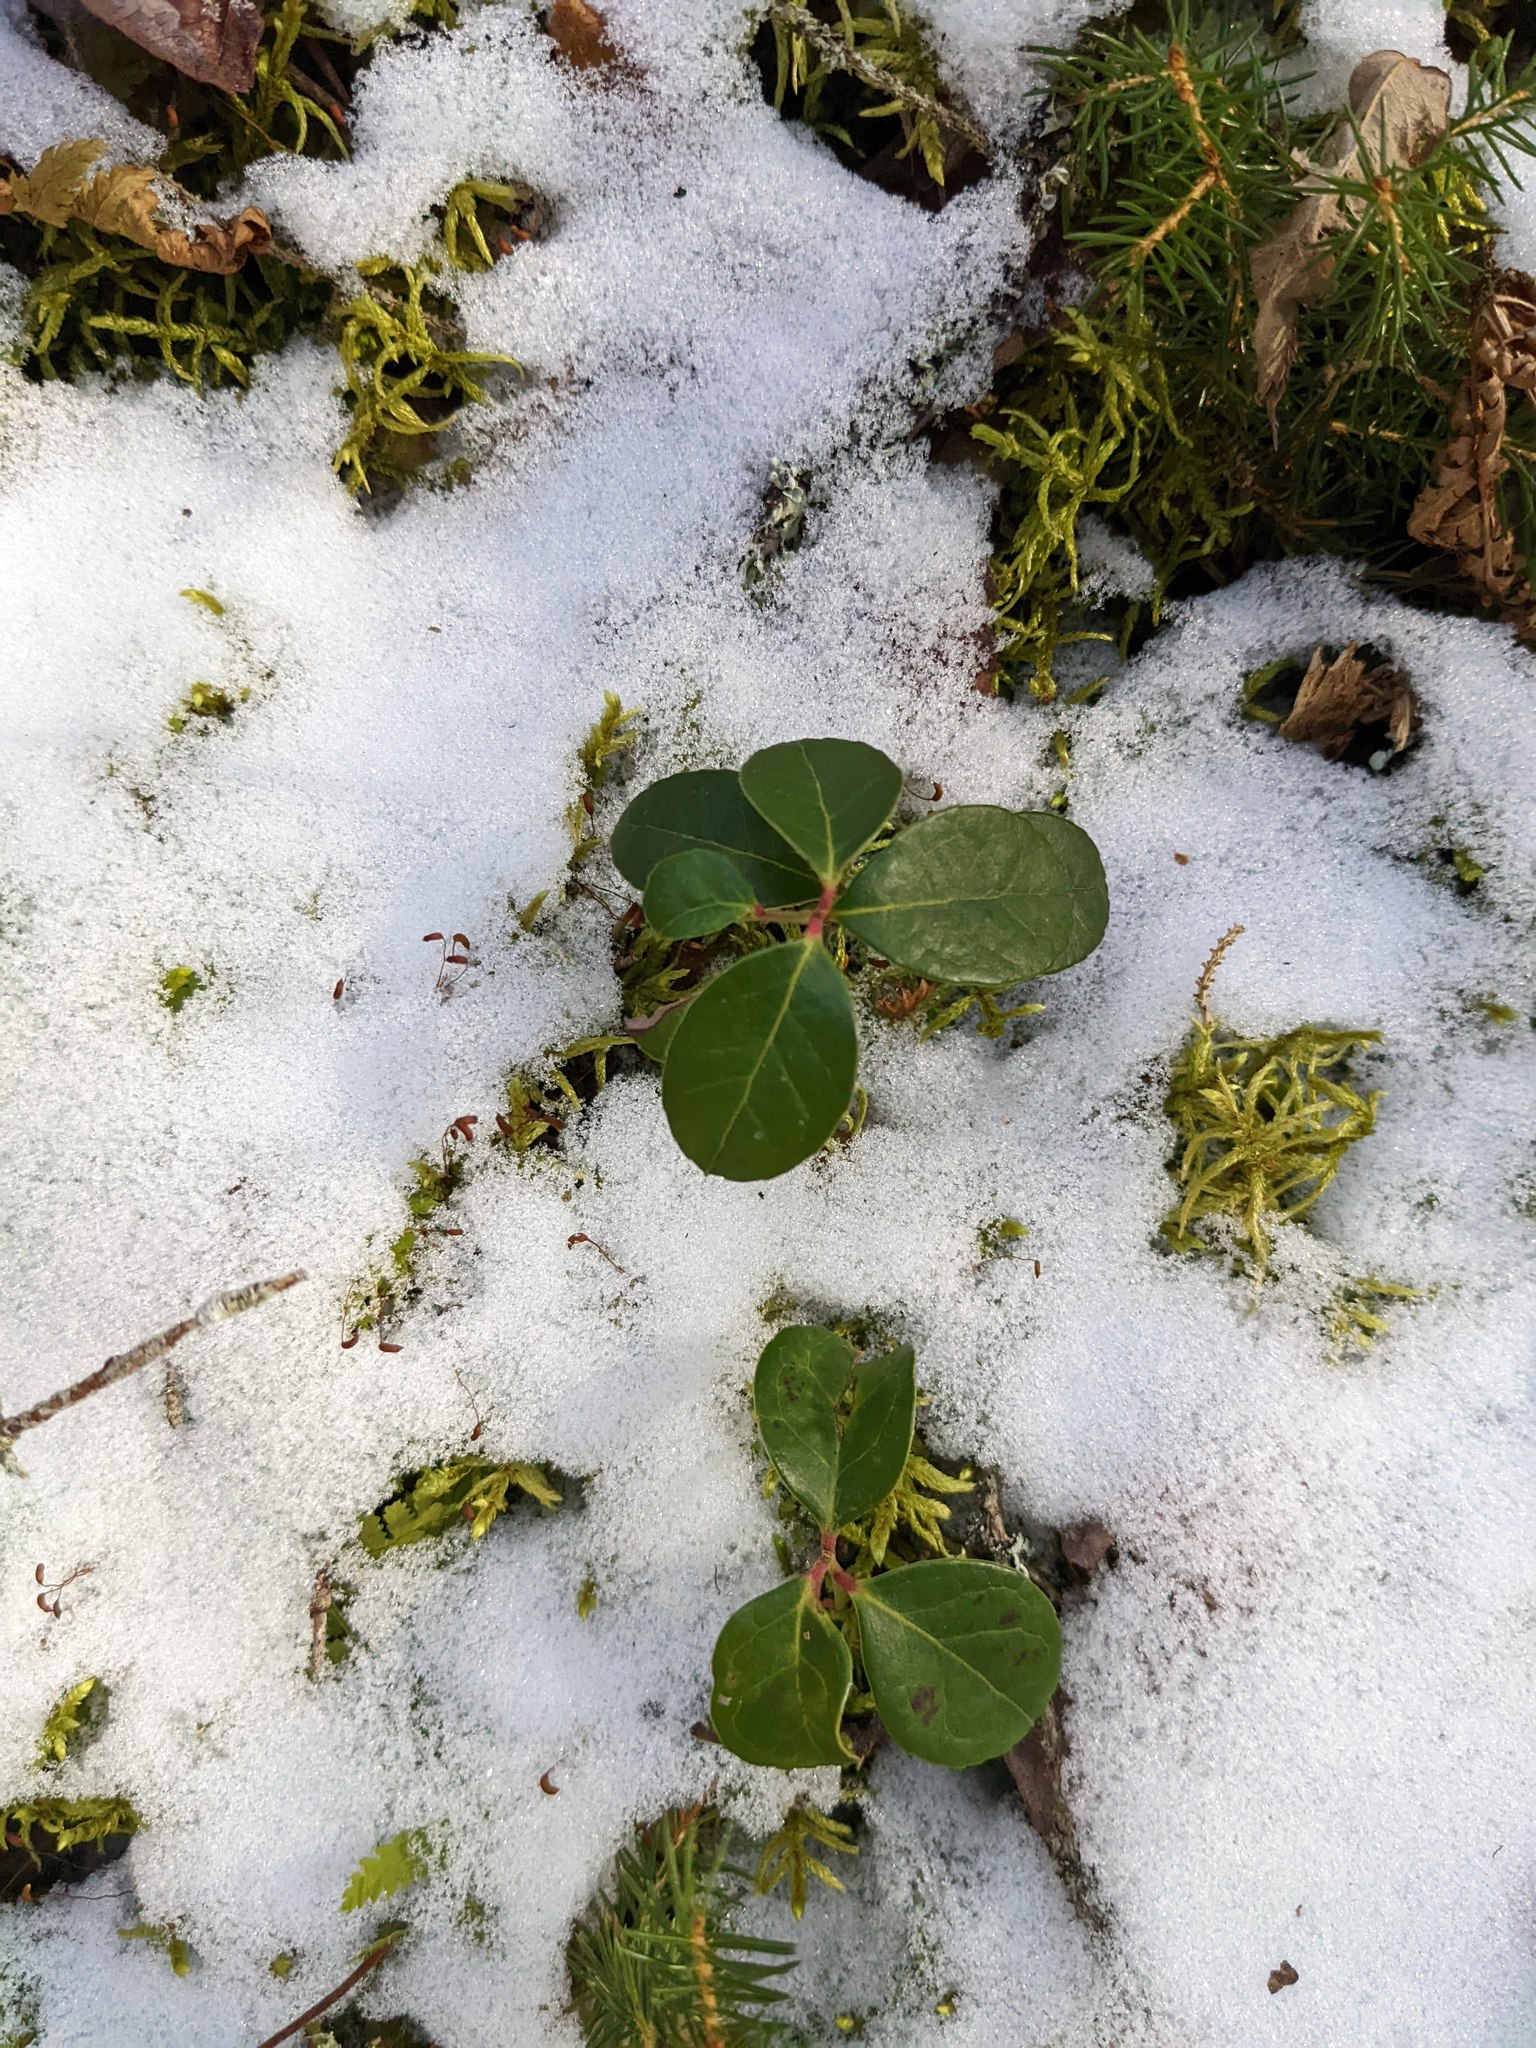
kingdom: Plantae
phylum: Tracheophyta
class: Magnoliopsida
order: Ericales
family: Ericaceae
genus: Gaultheria
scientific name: Gaultheria procumbens
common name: Checkerberry
